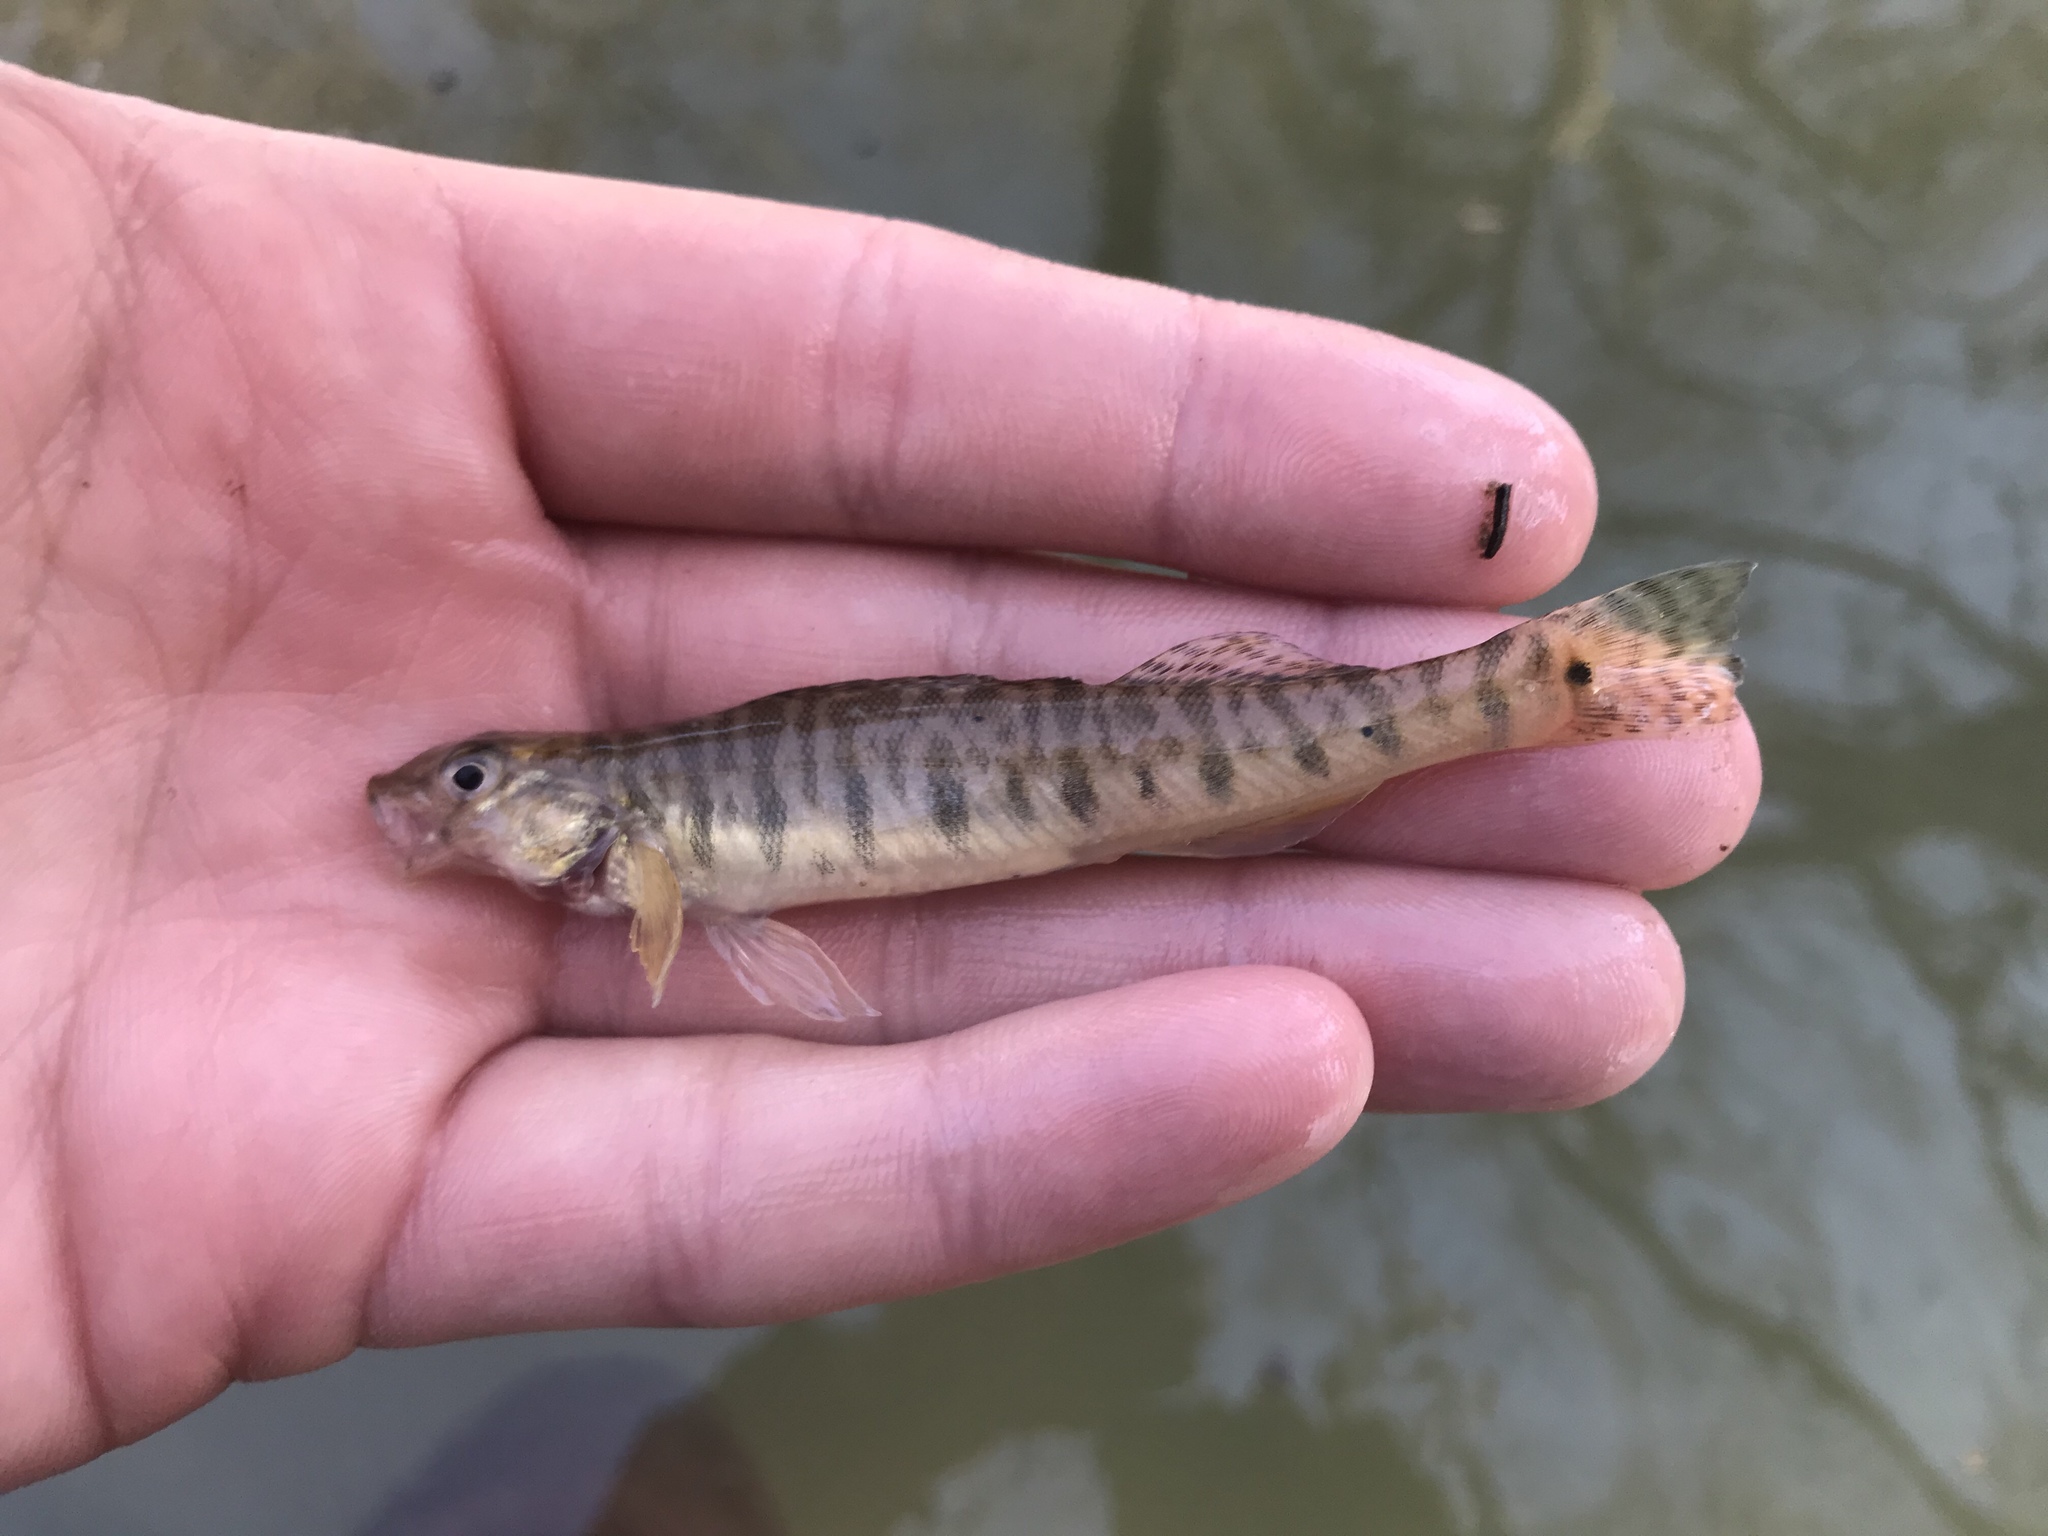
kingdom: Animalia
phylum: Chordata
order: Perciformes
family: Percidae
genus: Percina
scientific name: Percina carbonaria
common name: Texas logperch
